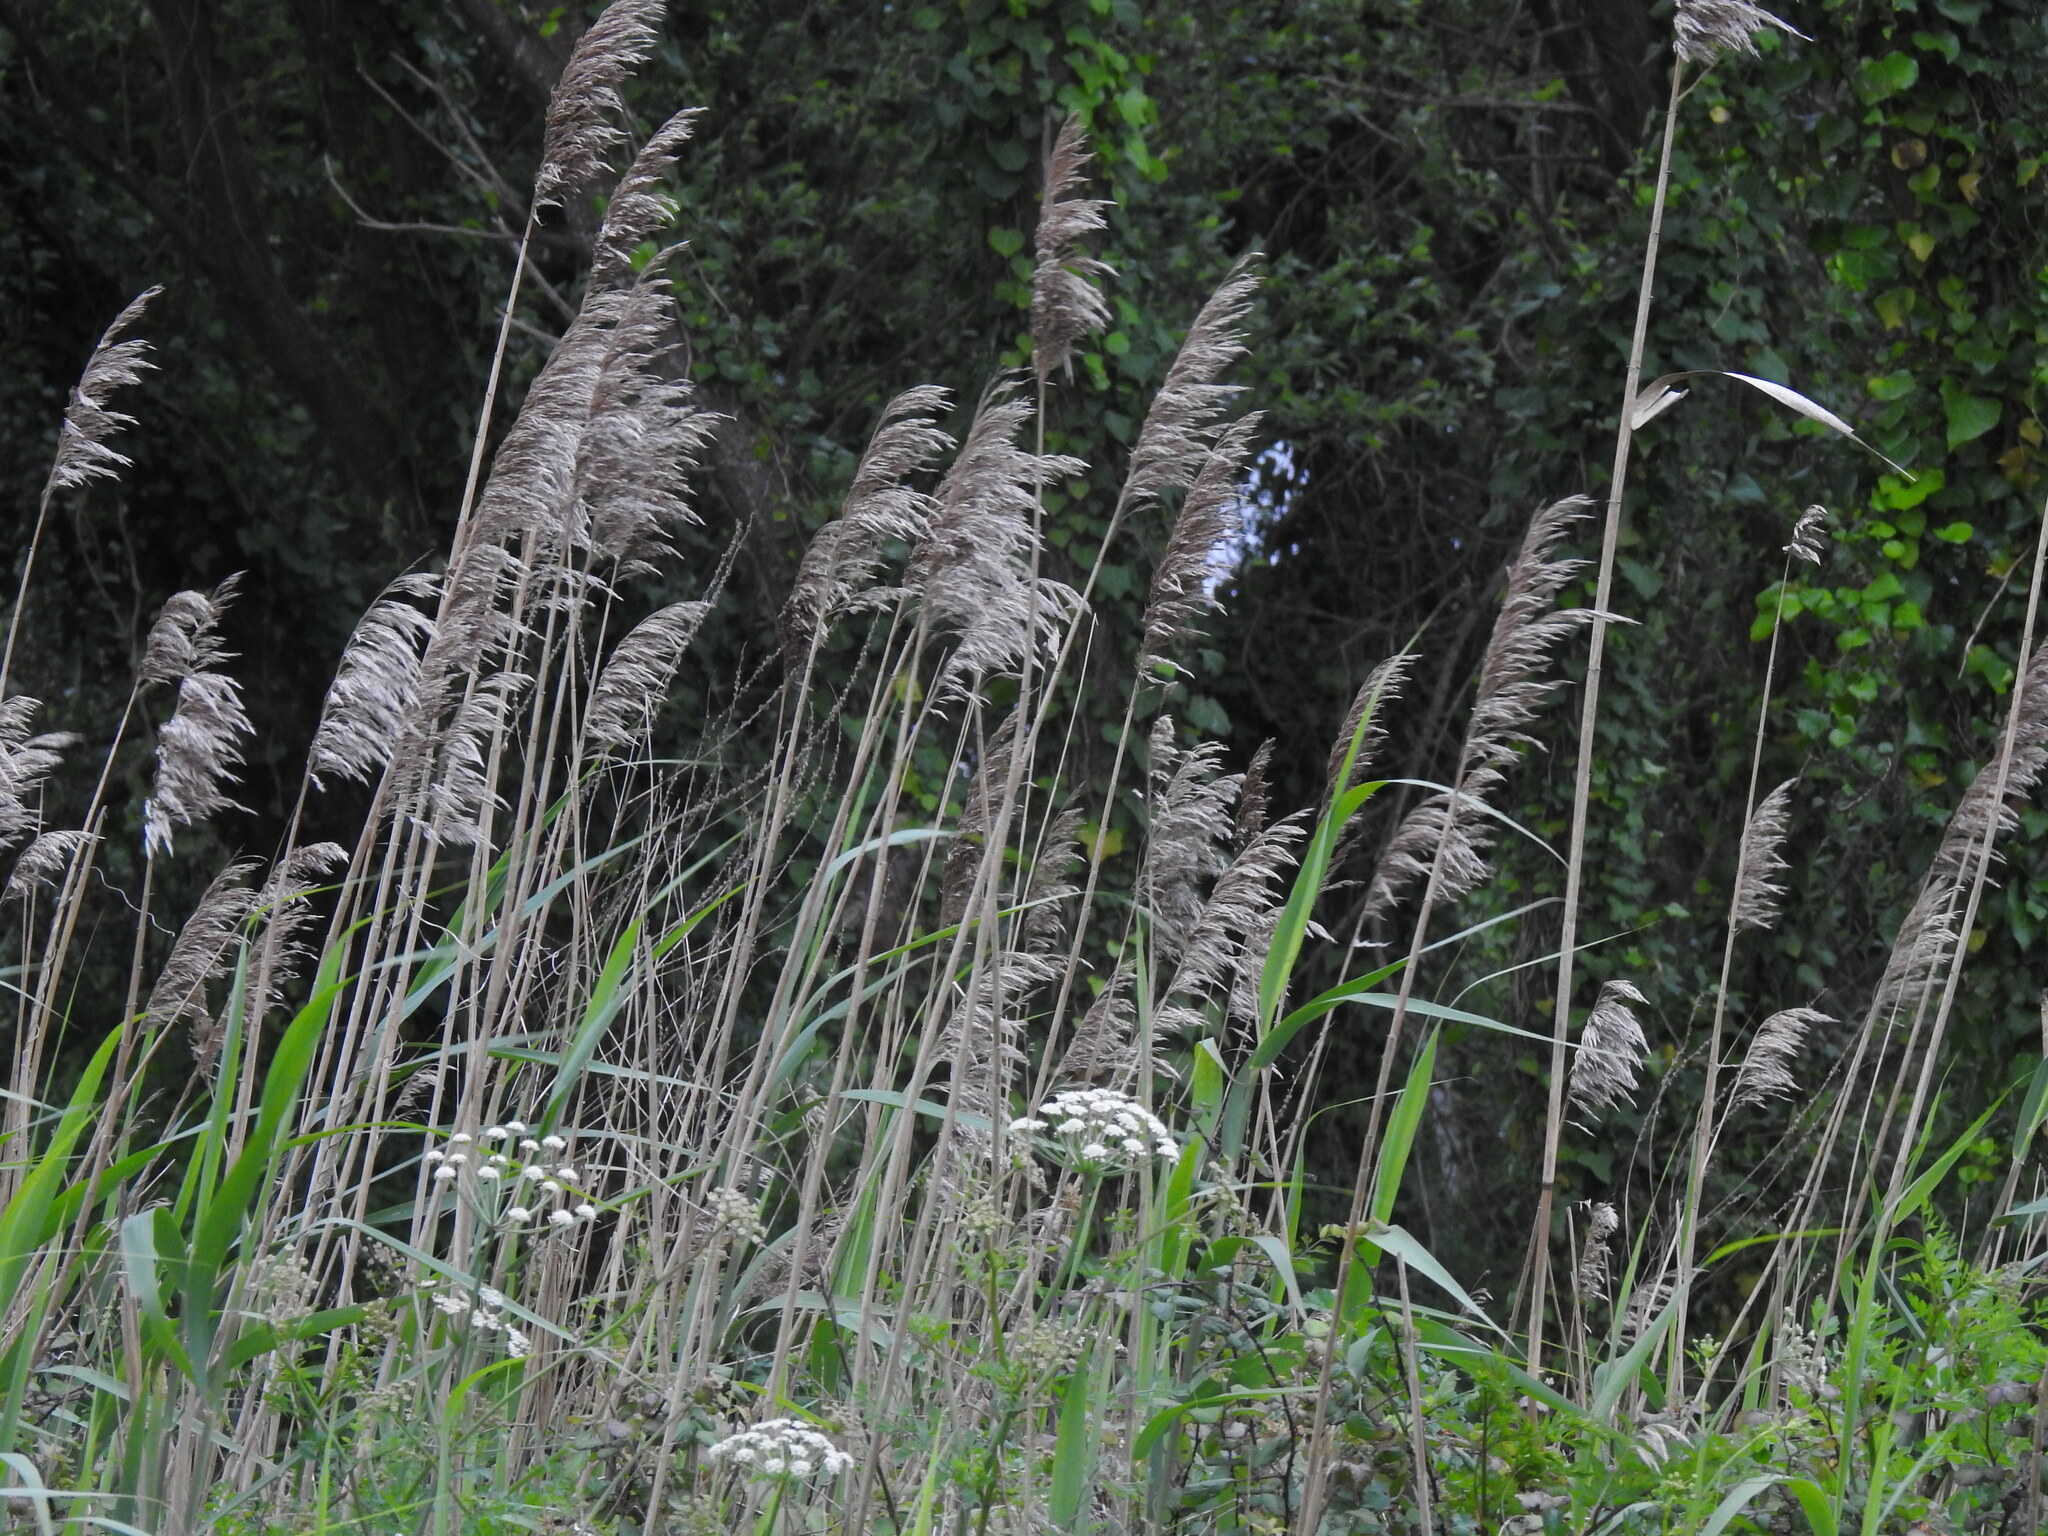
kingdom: Plantae
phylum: Tracheophyta
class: Liliopsida
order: Poales
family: Poaceae
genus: Phragmites
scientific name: Phragmites australis
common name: Common reed
